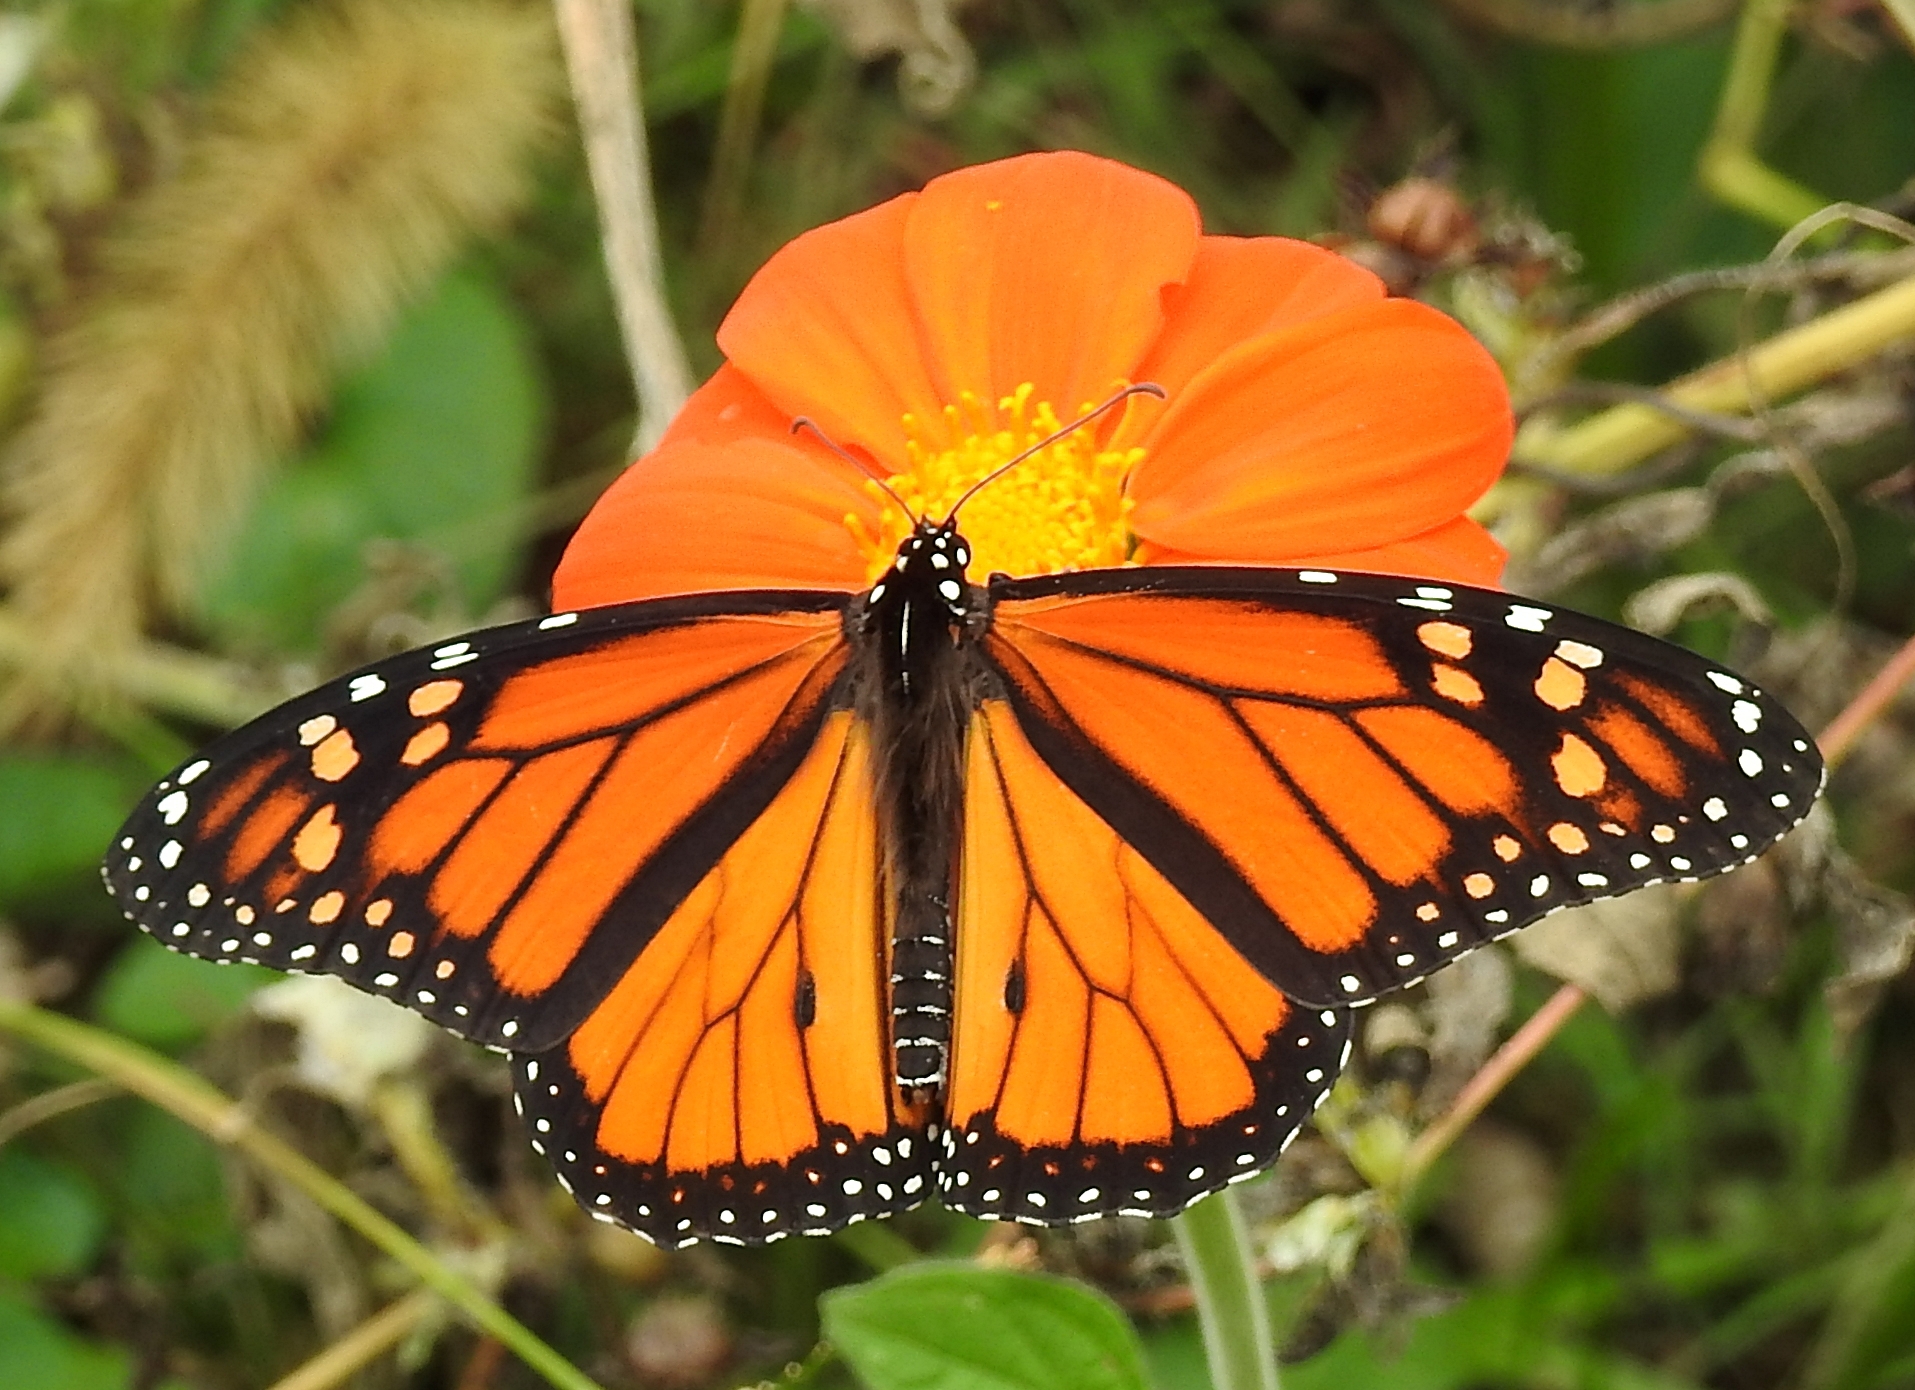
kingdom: Animalia
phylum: Arthropoda
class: Insecta
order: Lepidoptera
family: Nymphalidae
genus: Danaus
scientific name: Danaus plexippus
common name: Monarch
